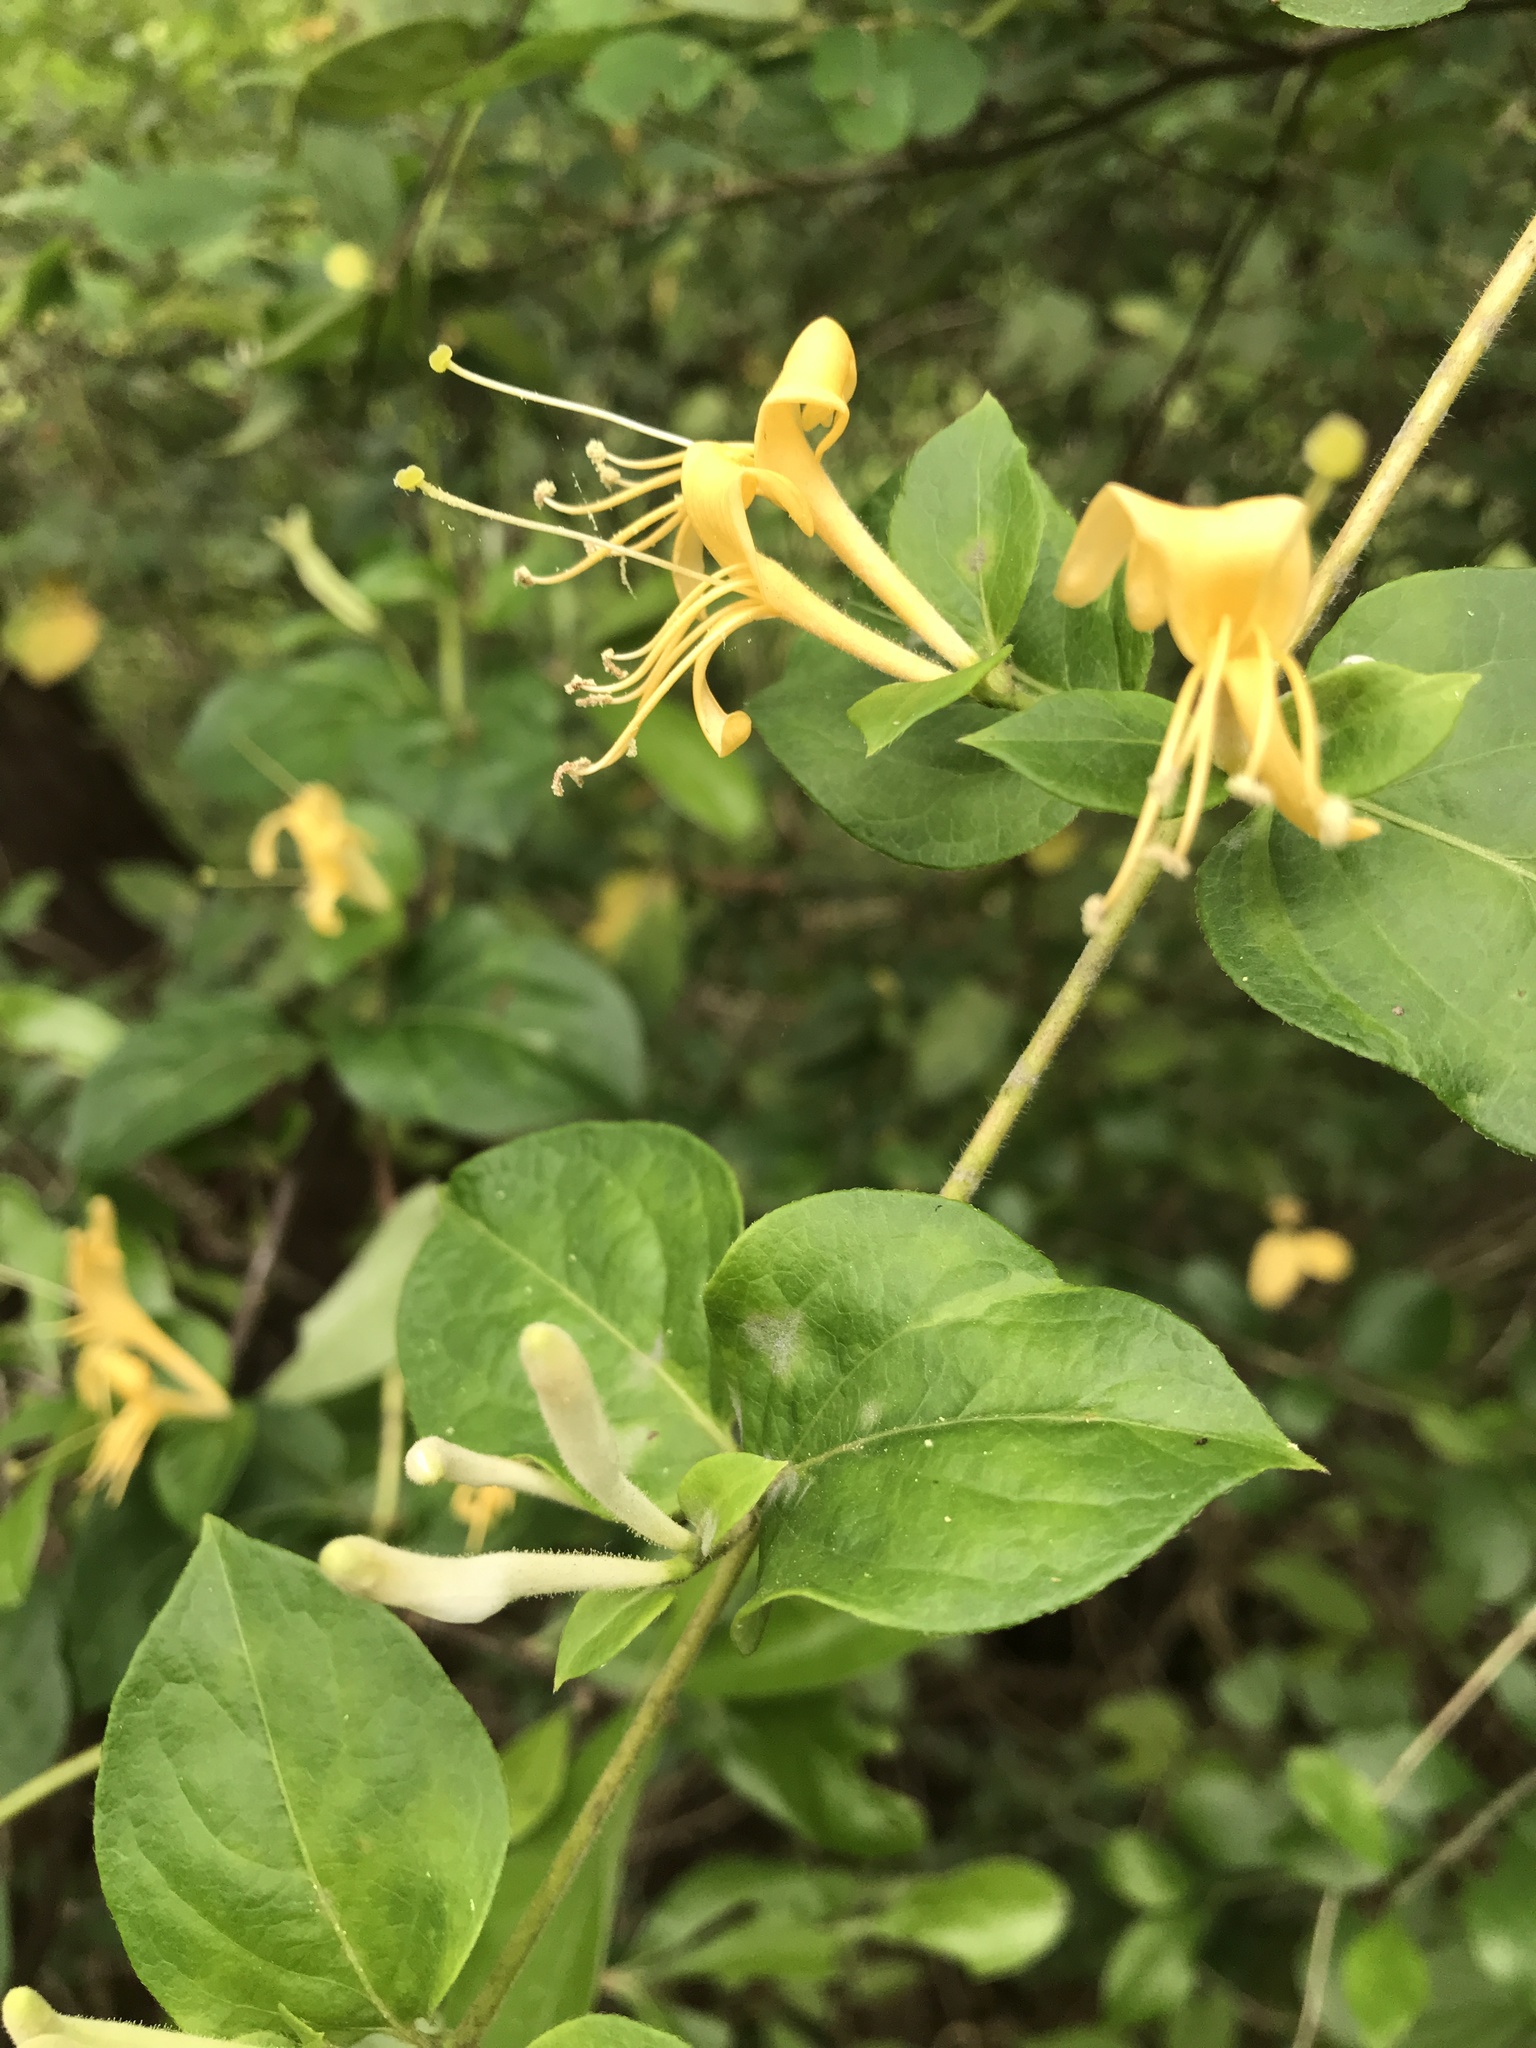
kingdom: Plantae
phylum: Tracheophyta
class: Magnoliopsida
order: Dipsacales
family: Caprifoliaceae
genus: Lonicera
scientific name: Lonicera japonica
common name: Japanese honeysuckle
